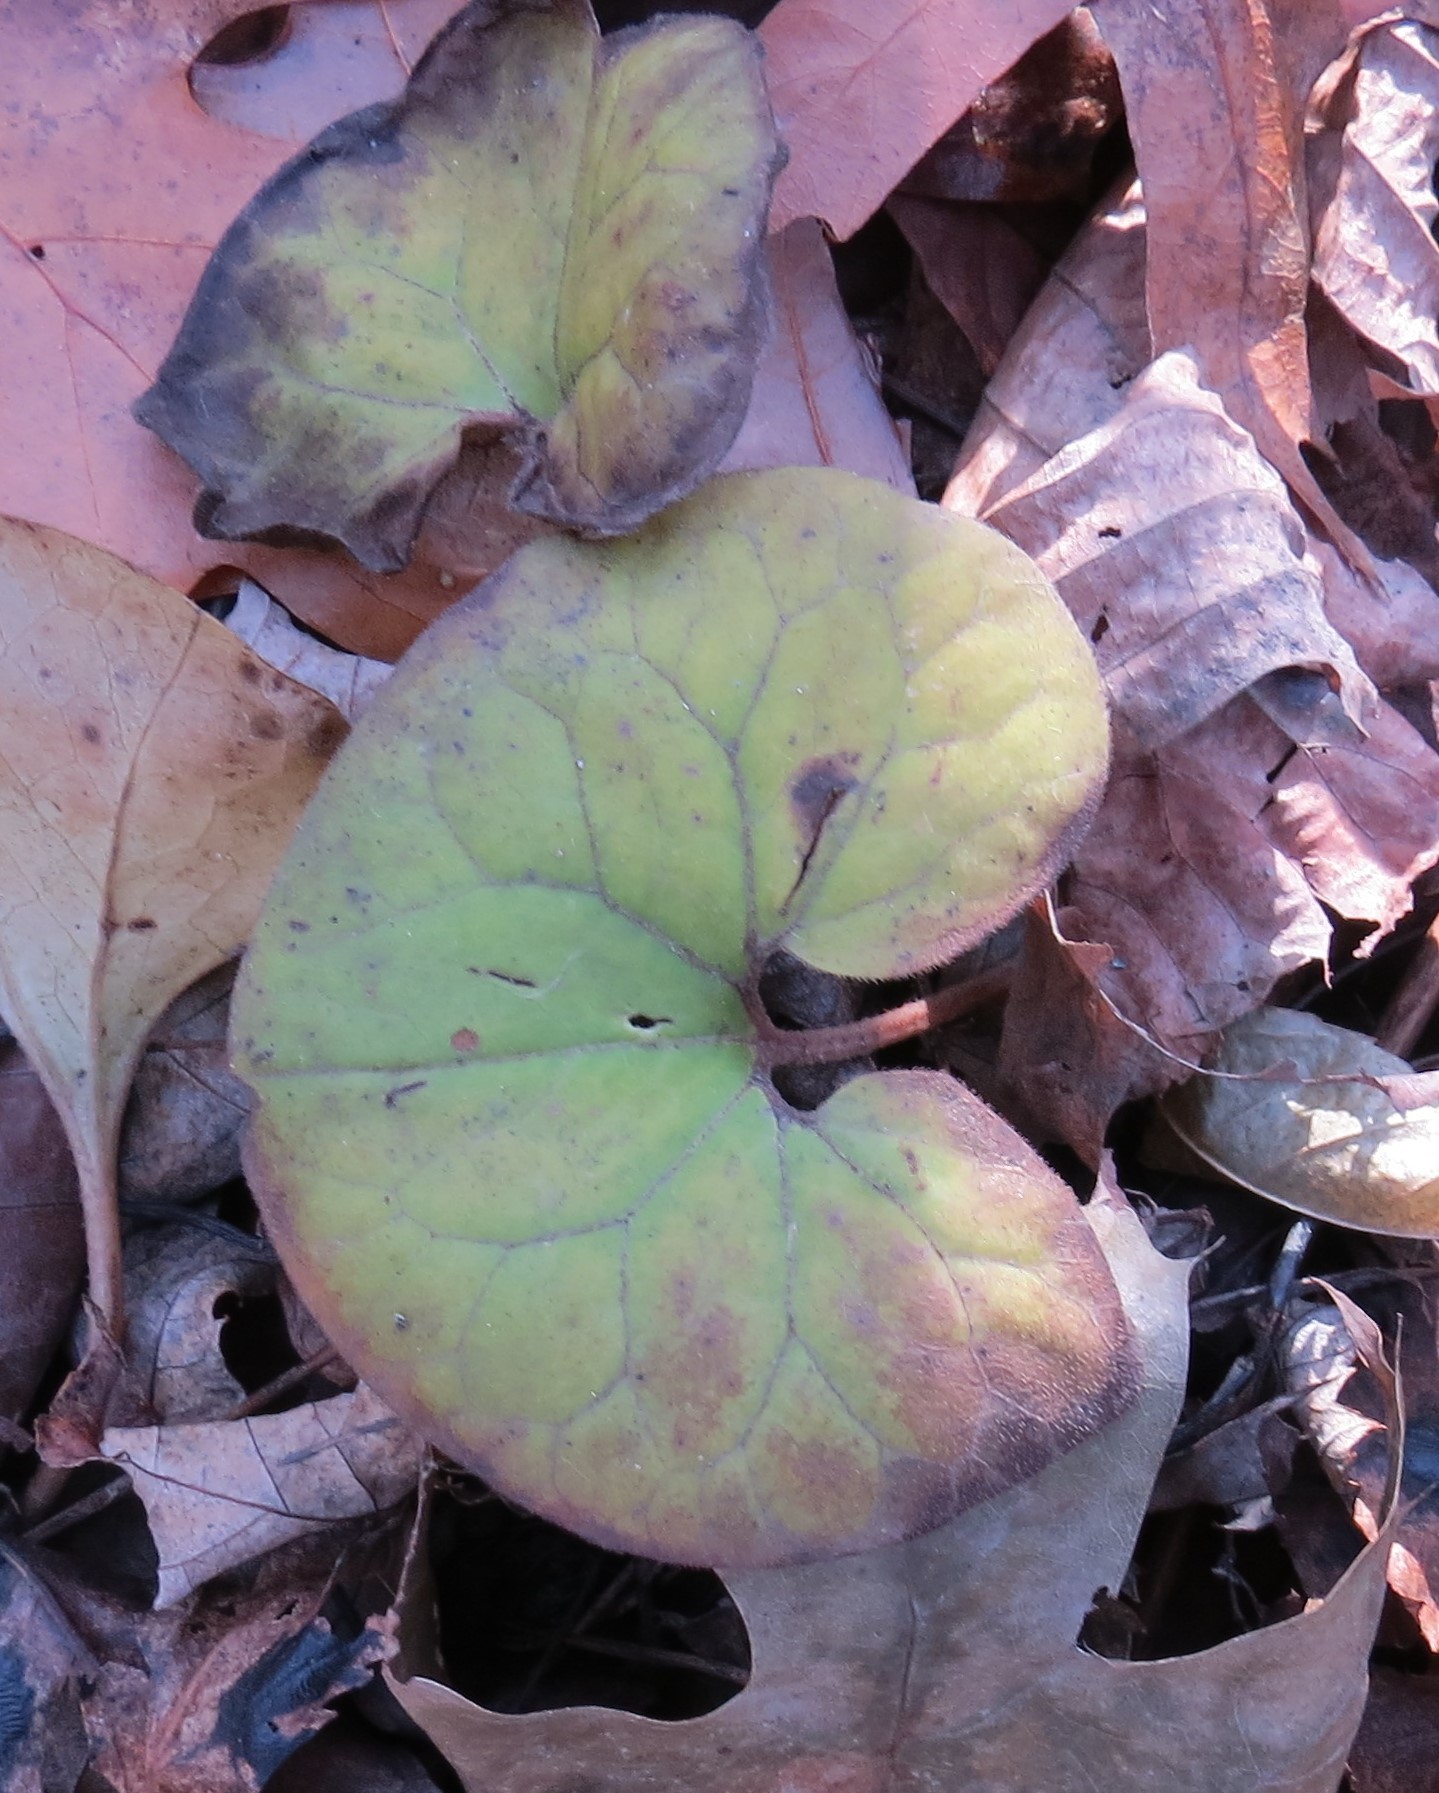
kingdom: Plantae
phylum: Tracheophyta
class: Magnoliopsida
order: Piperales
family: Aristolochiaceae
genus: Asarum
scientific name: Asarum canadense
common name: Wild ginger
